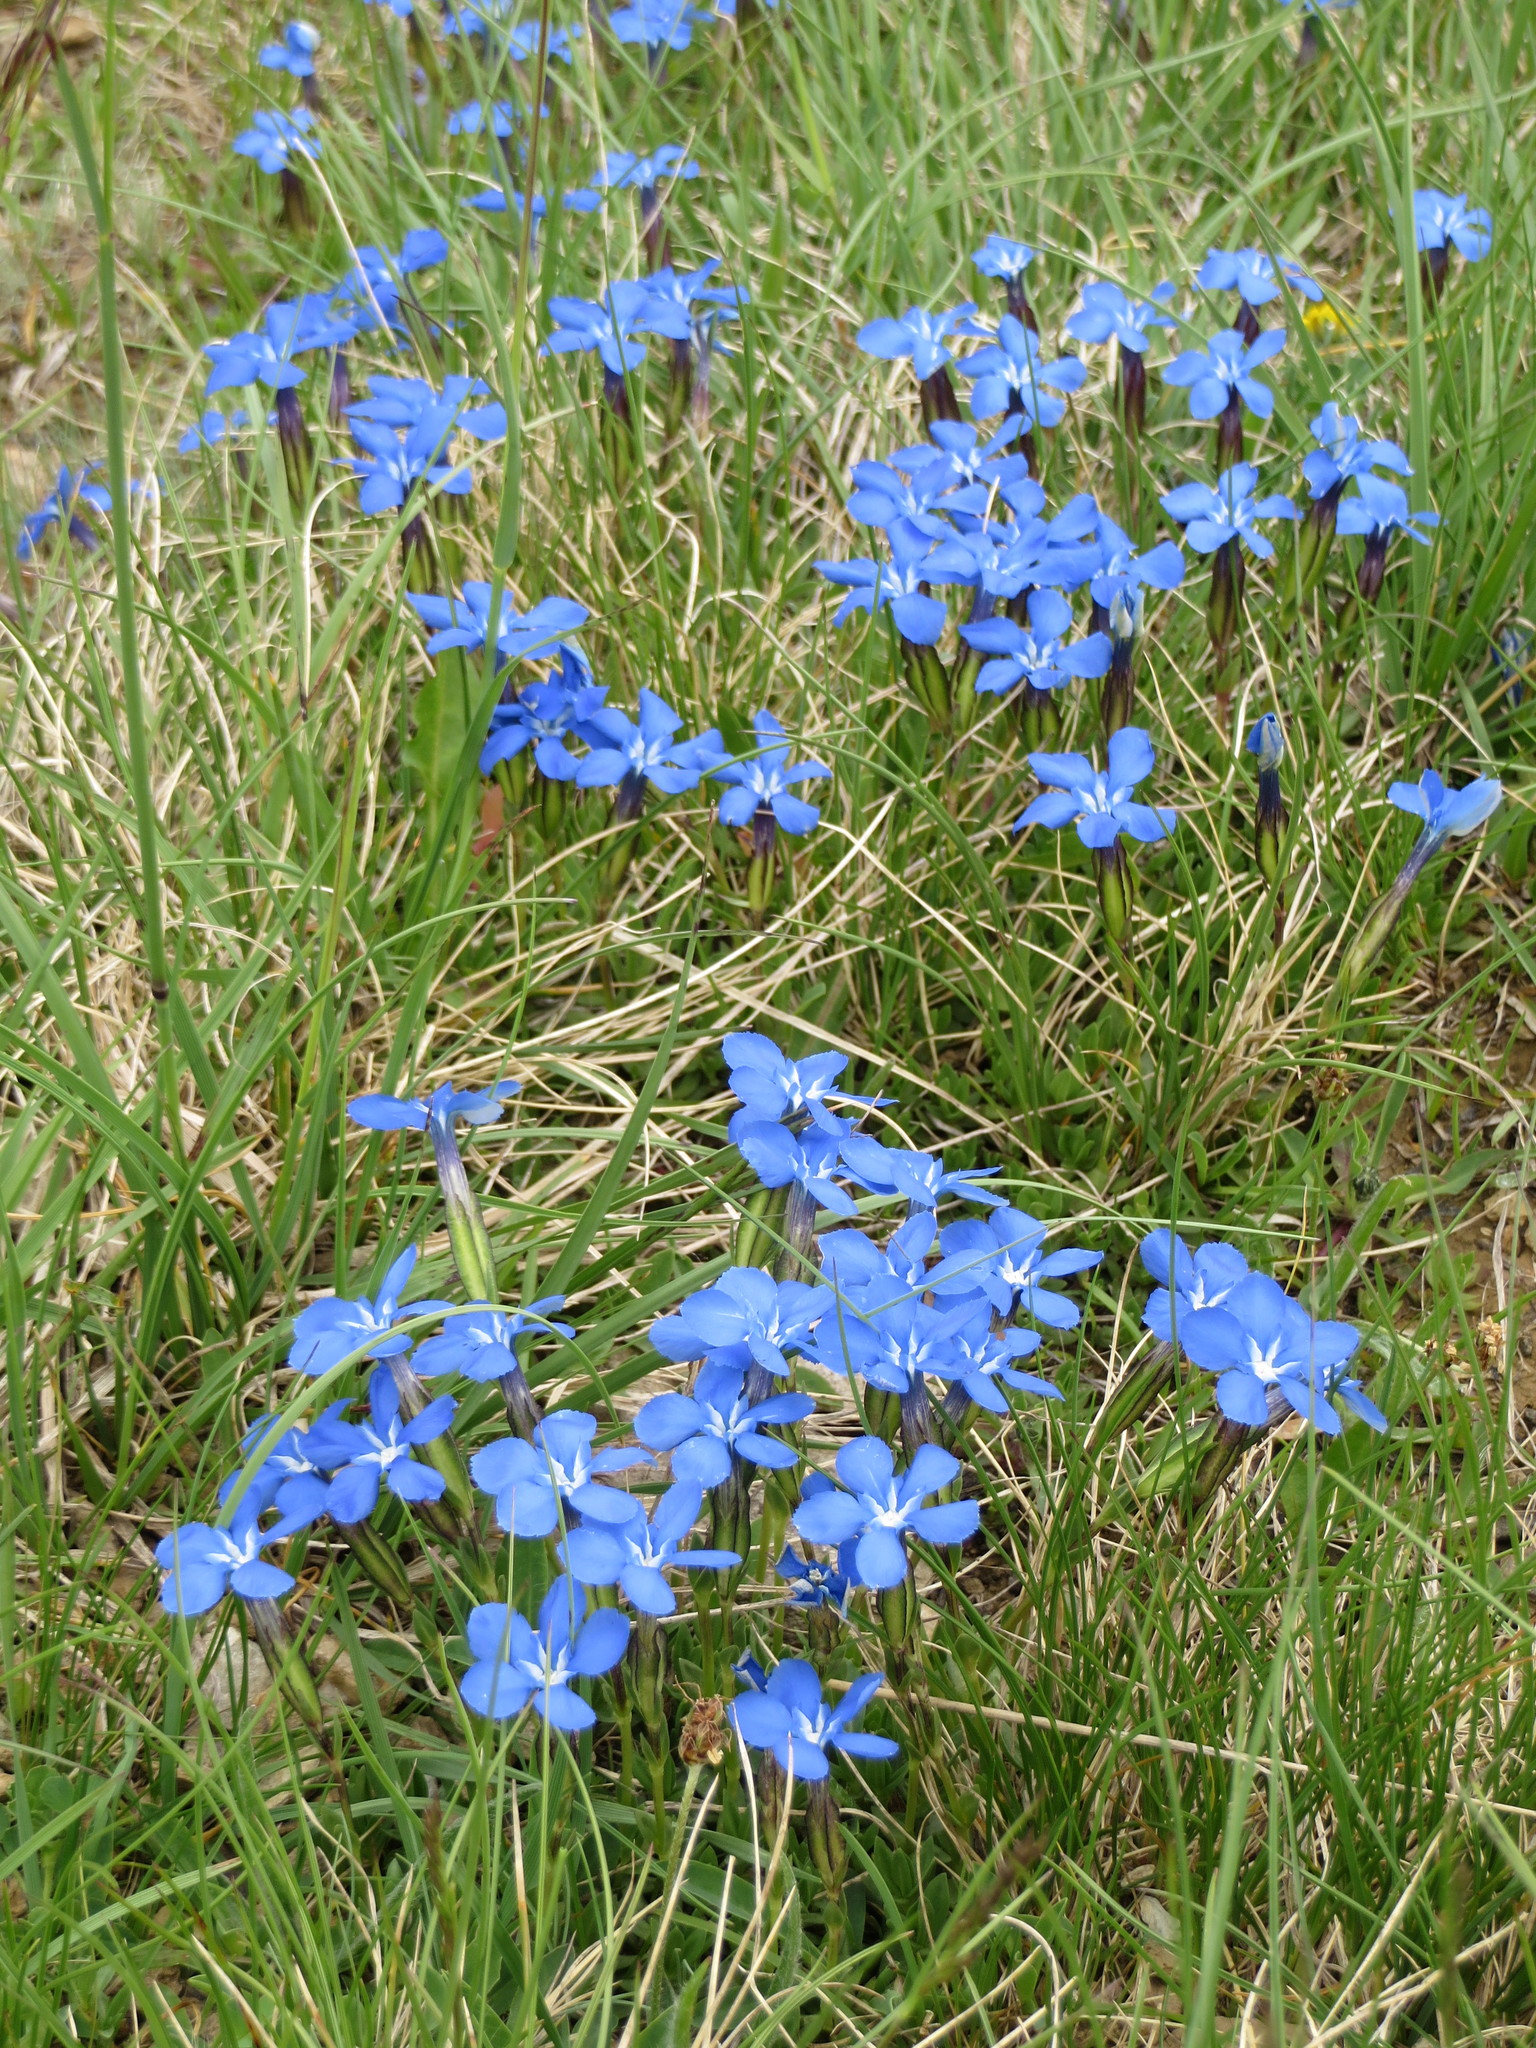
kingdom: Plantae
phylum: Tracheophyta
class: Magnoliopsida
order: Gentianales
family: Gentianaceae
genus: Gentiana
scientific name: Gentiana verna
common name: Spring gentian
